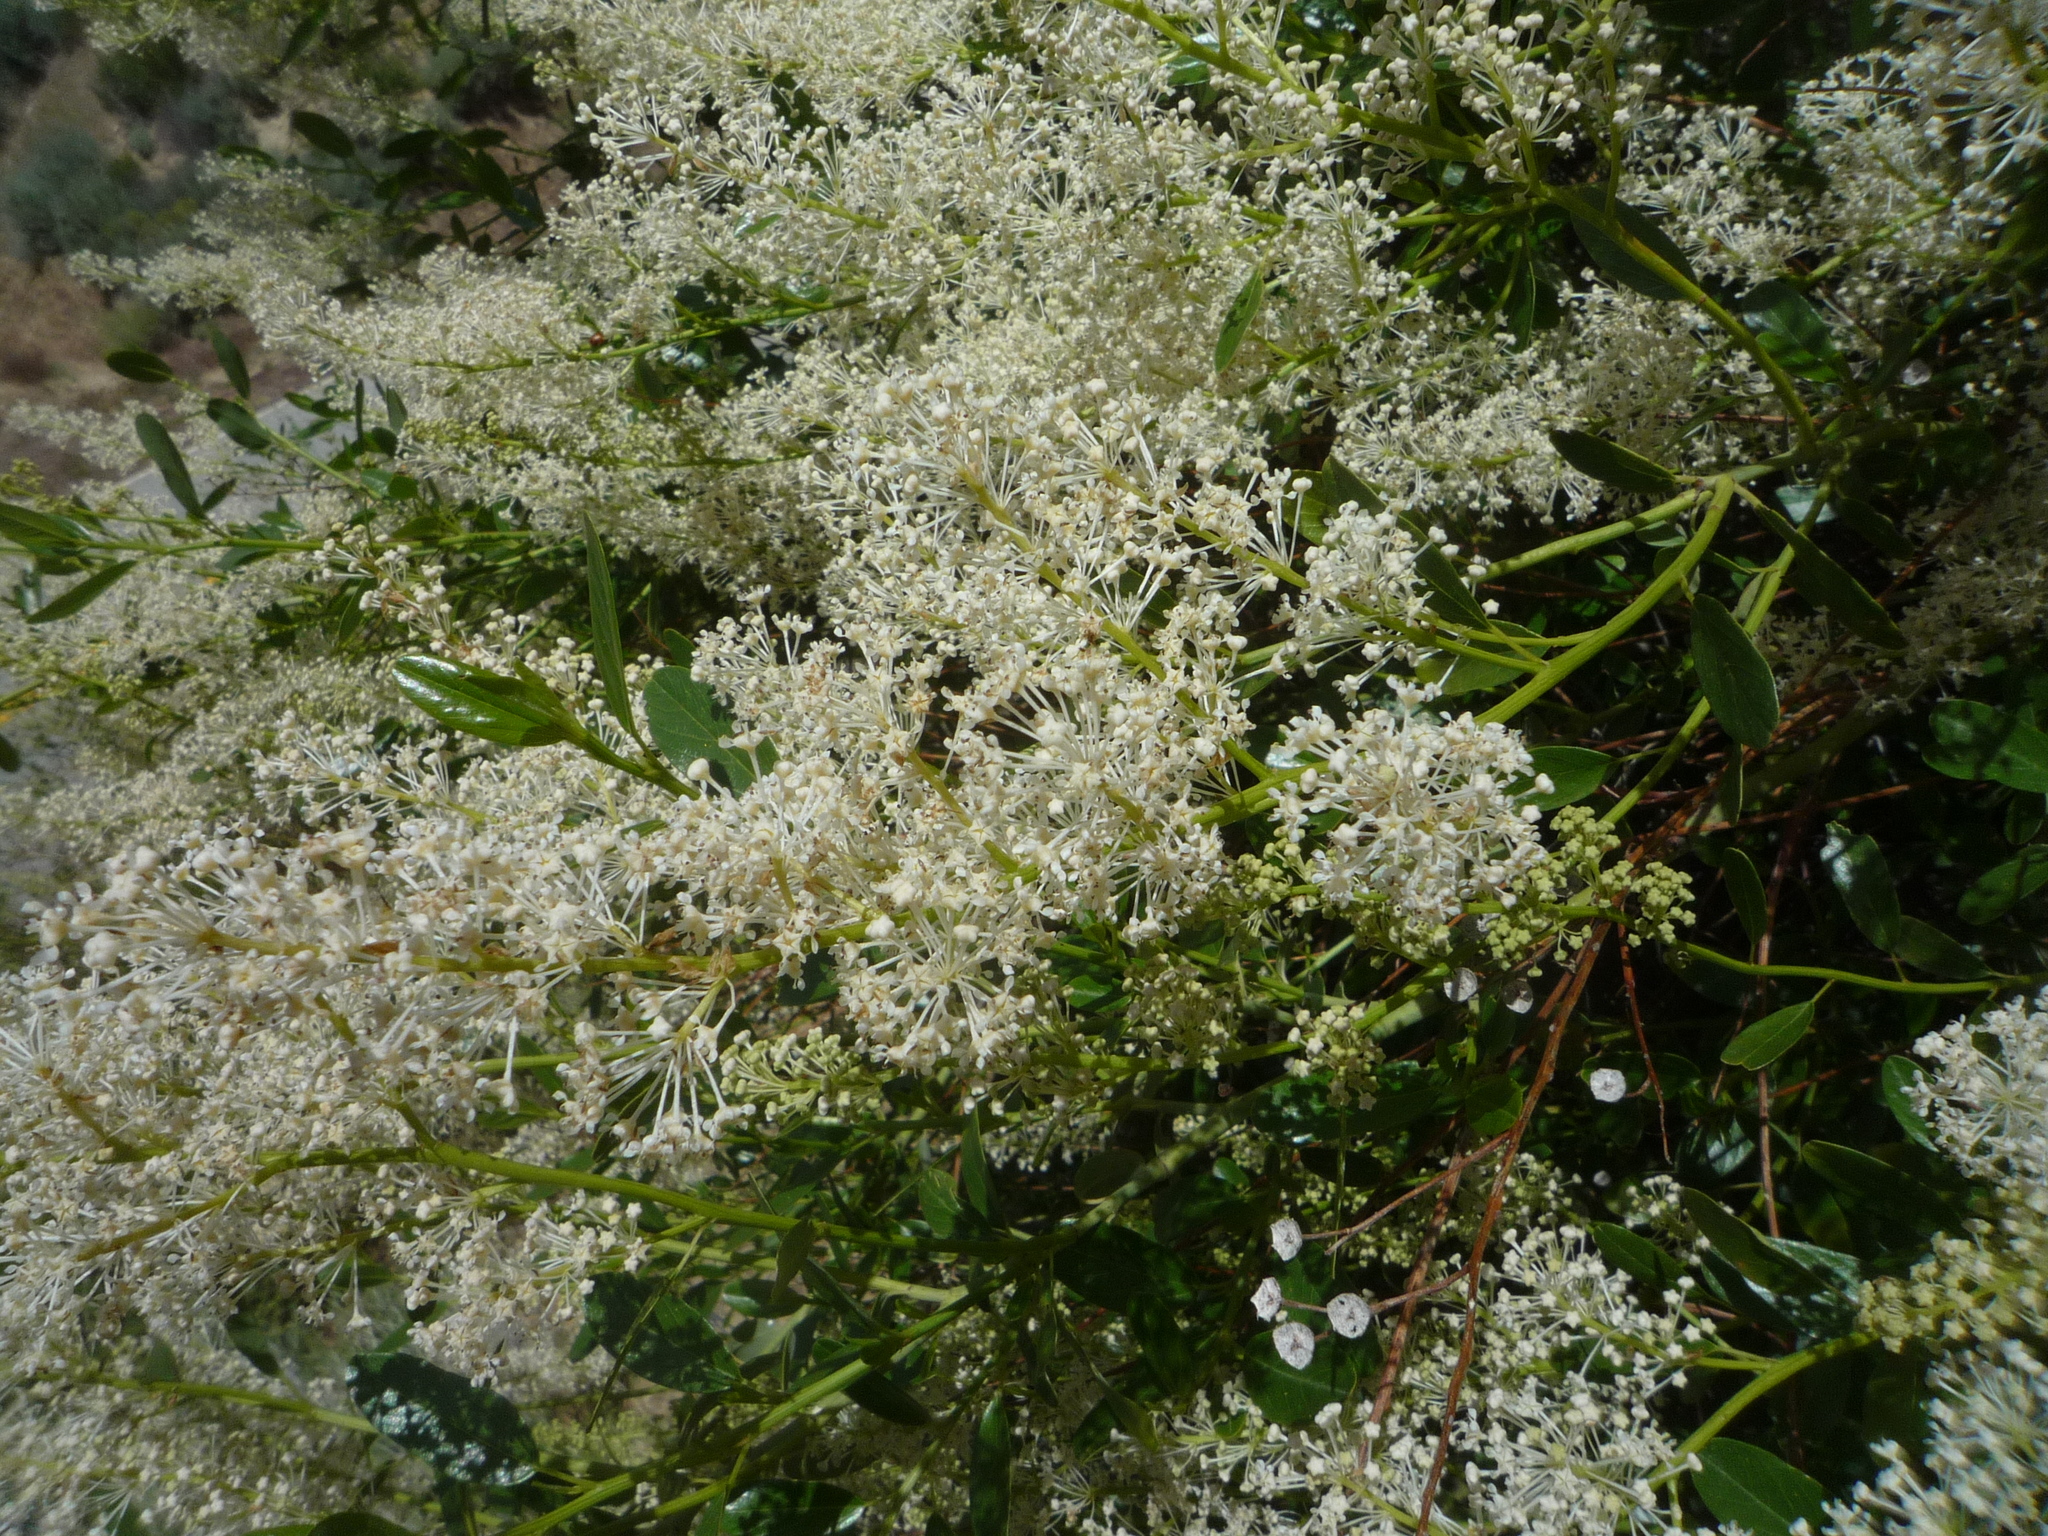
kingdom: Plantae
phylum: Tracheophyta
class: Magnoliopsida
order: Rosales
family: Rhamnaceae
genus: Ceanothus
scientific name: Ceanothus palmeri
